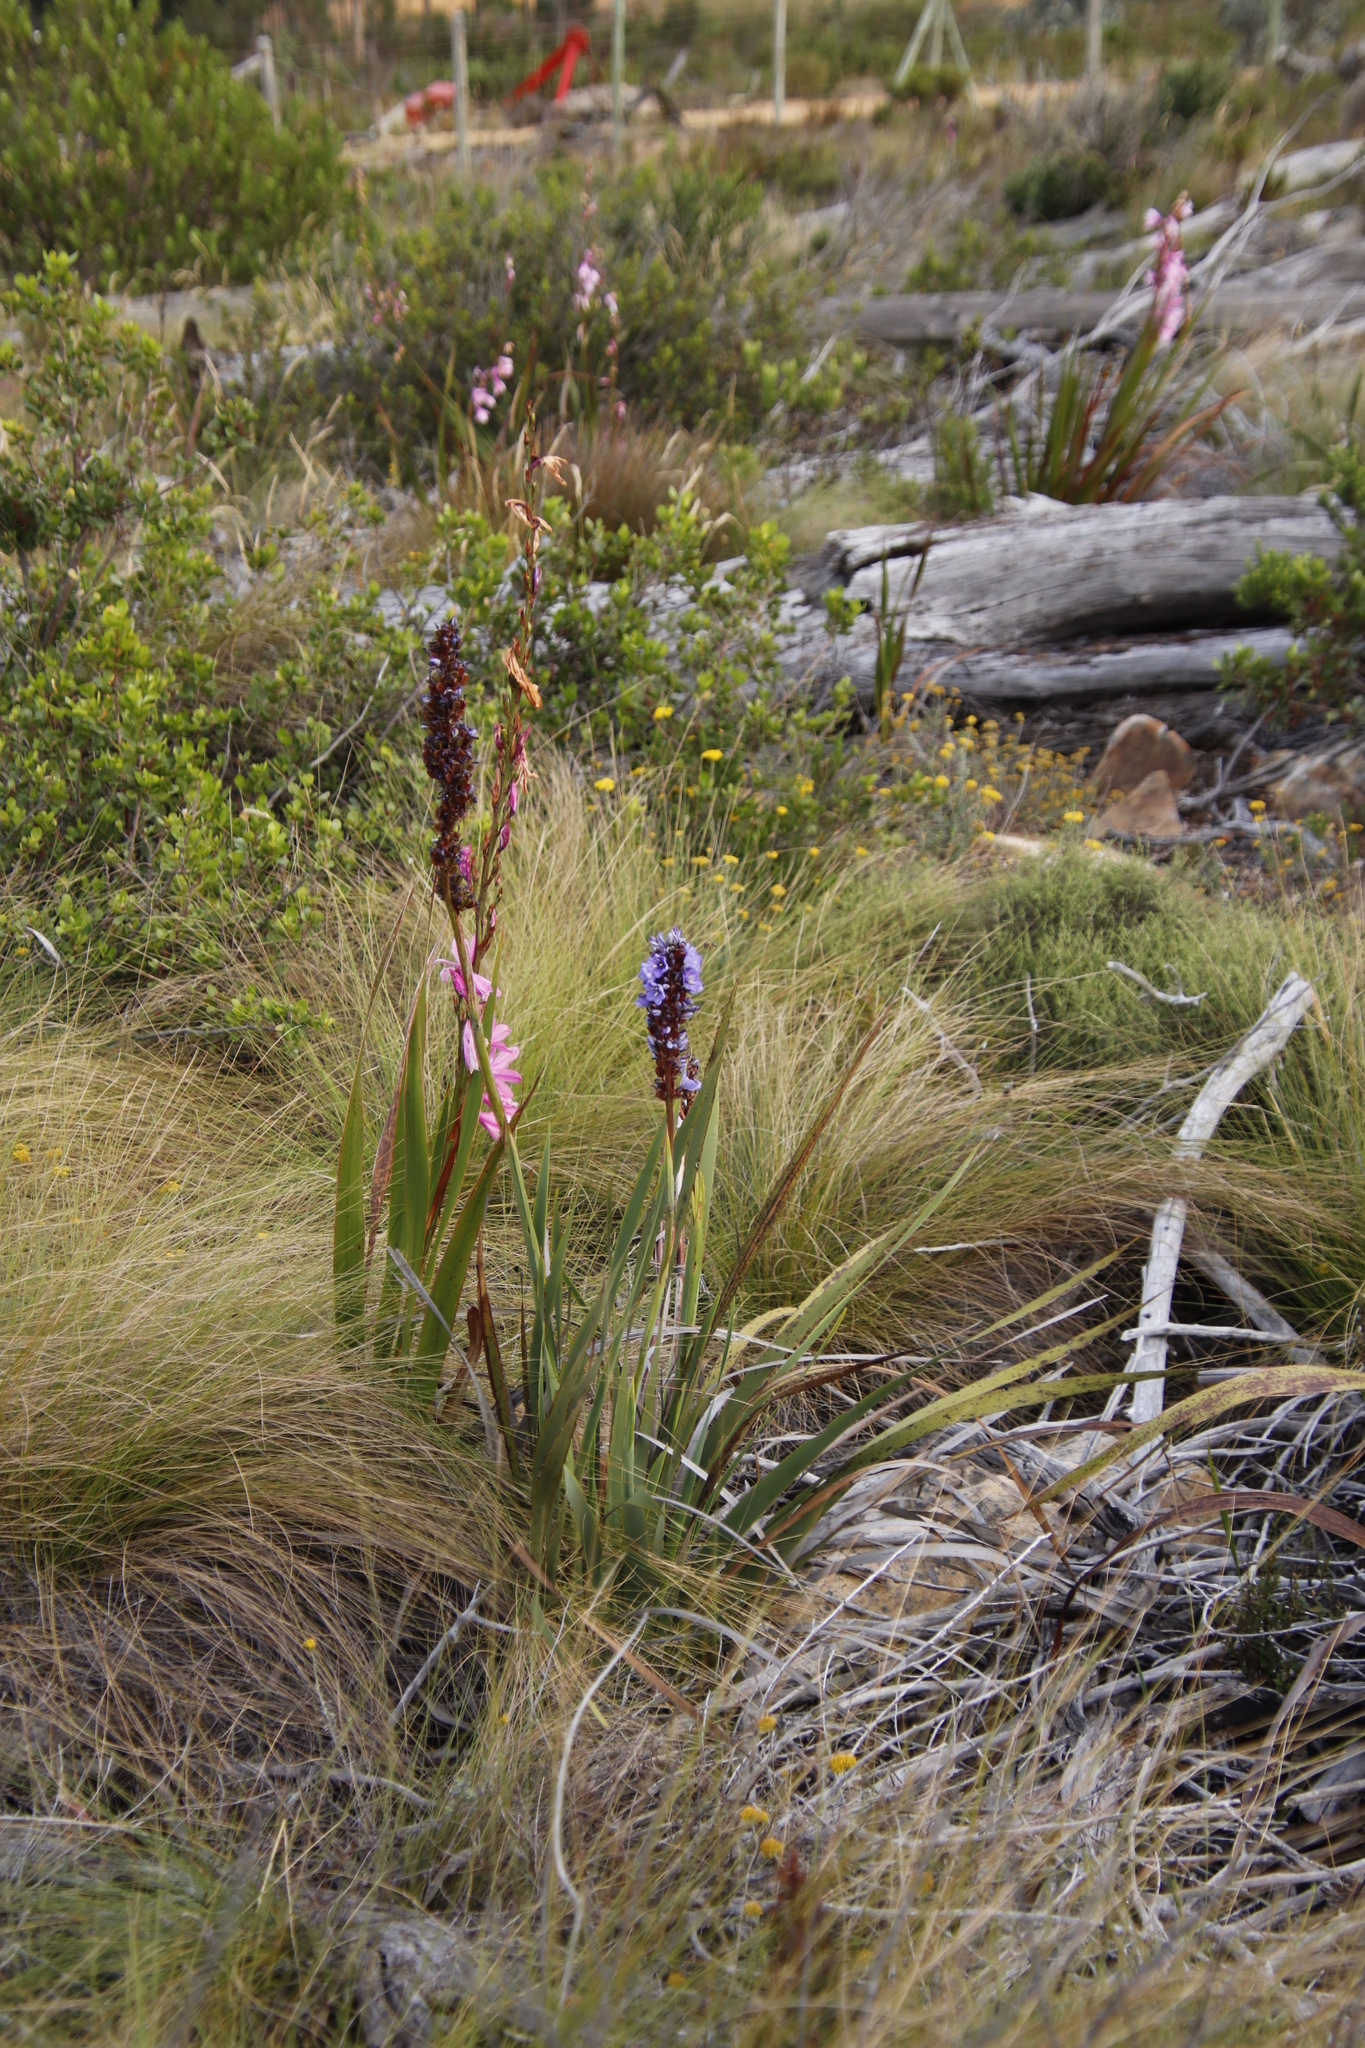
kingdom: Plantae
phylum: Tracheophyta
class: Liliopsida
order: Asparagales
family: Iridaceae
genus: Aristea
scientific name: Aristea capitata
